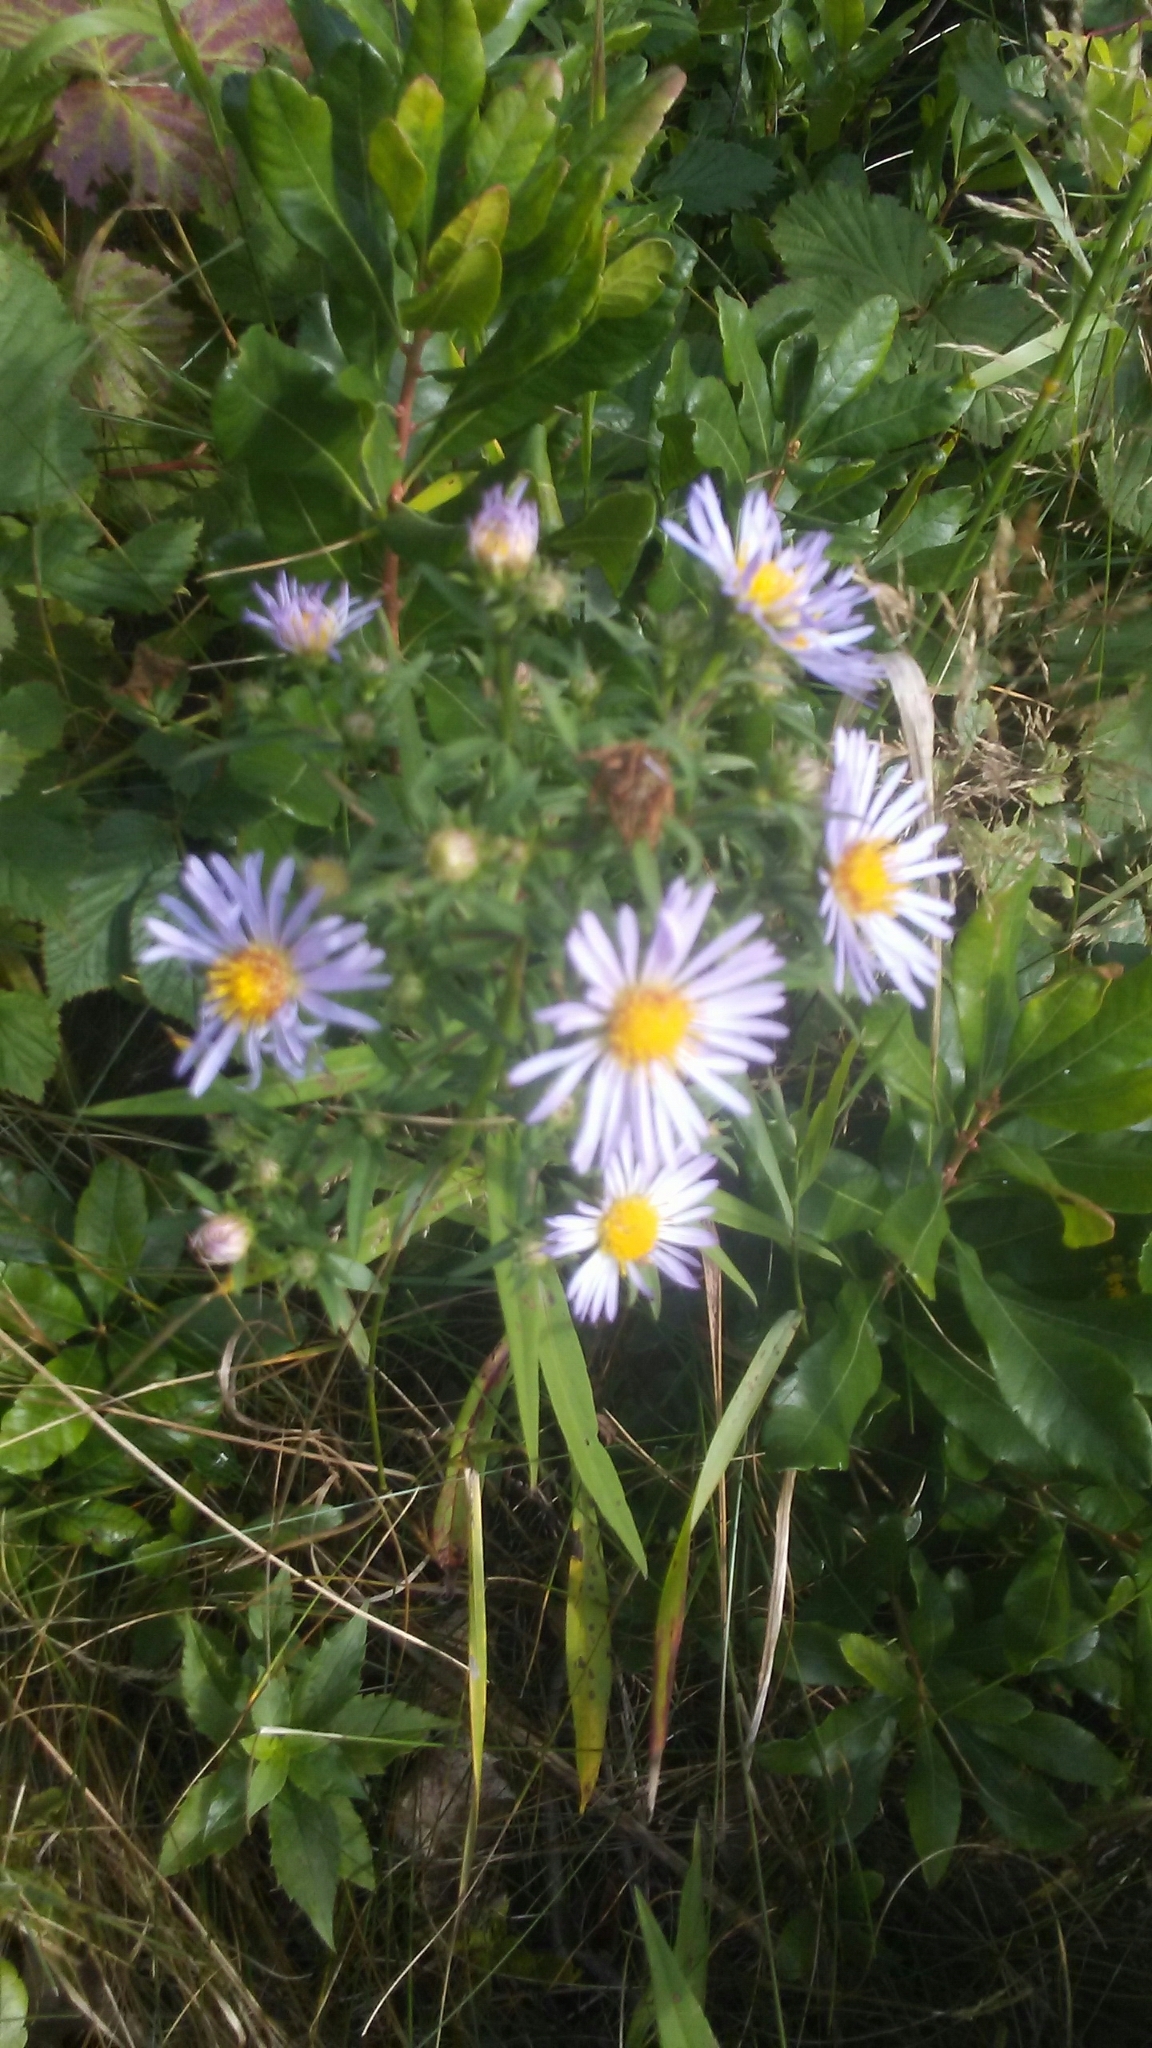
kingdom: Plantae
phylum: Tracheophyta
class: Magnoliopsida
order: Asterales
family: Asteraceae
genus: Symphyotrichum
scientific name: Symphyotrichum
